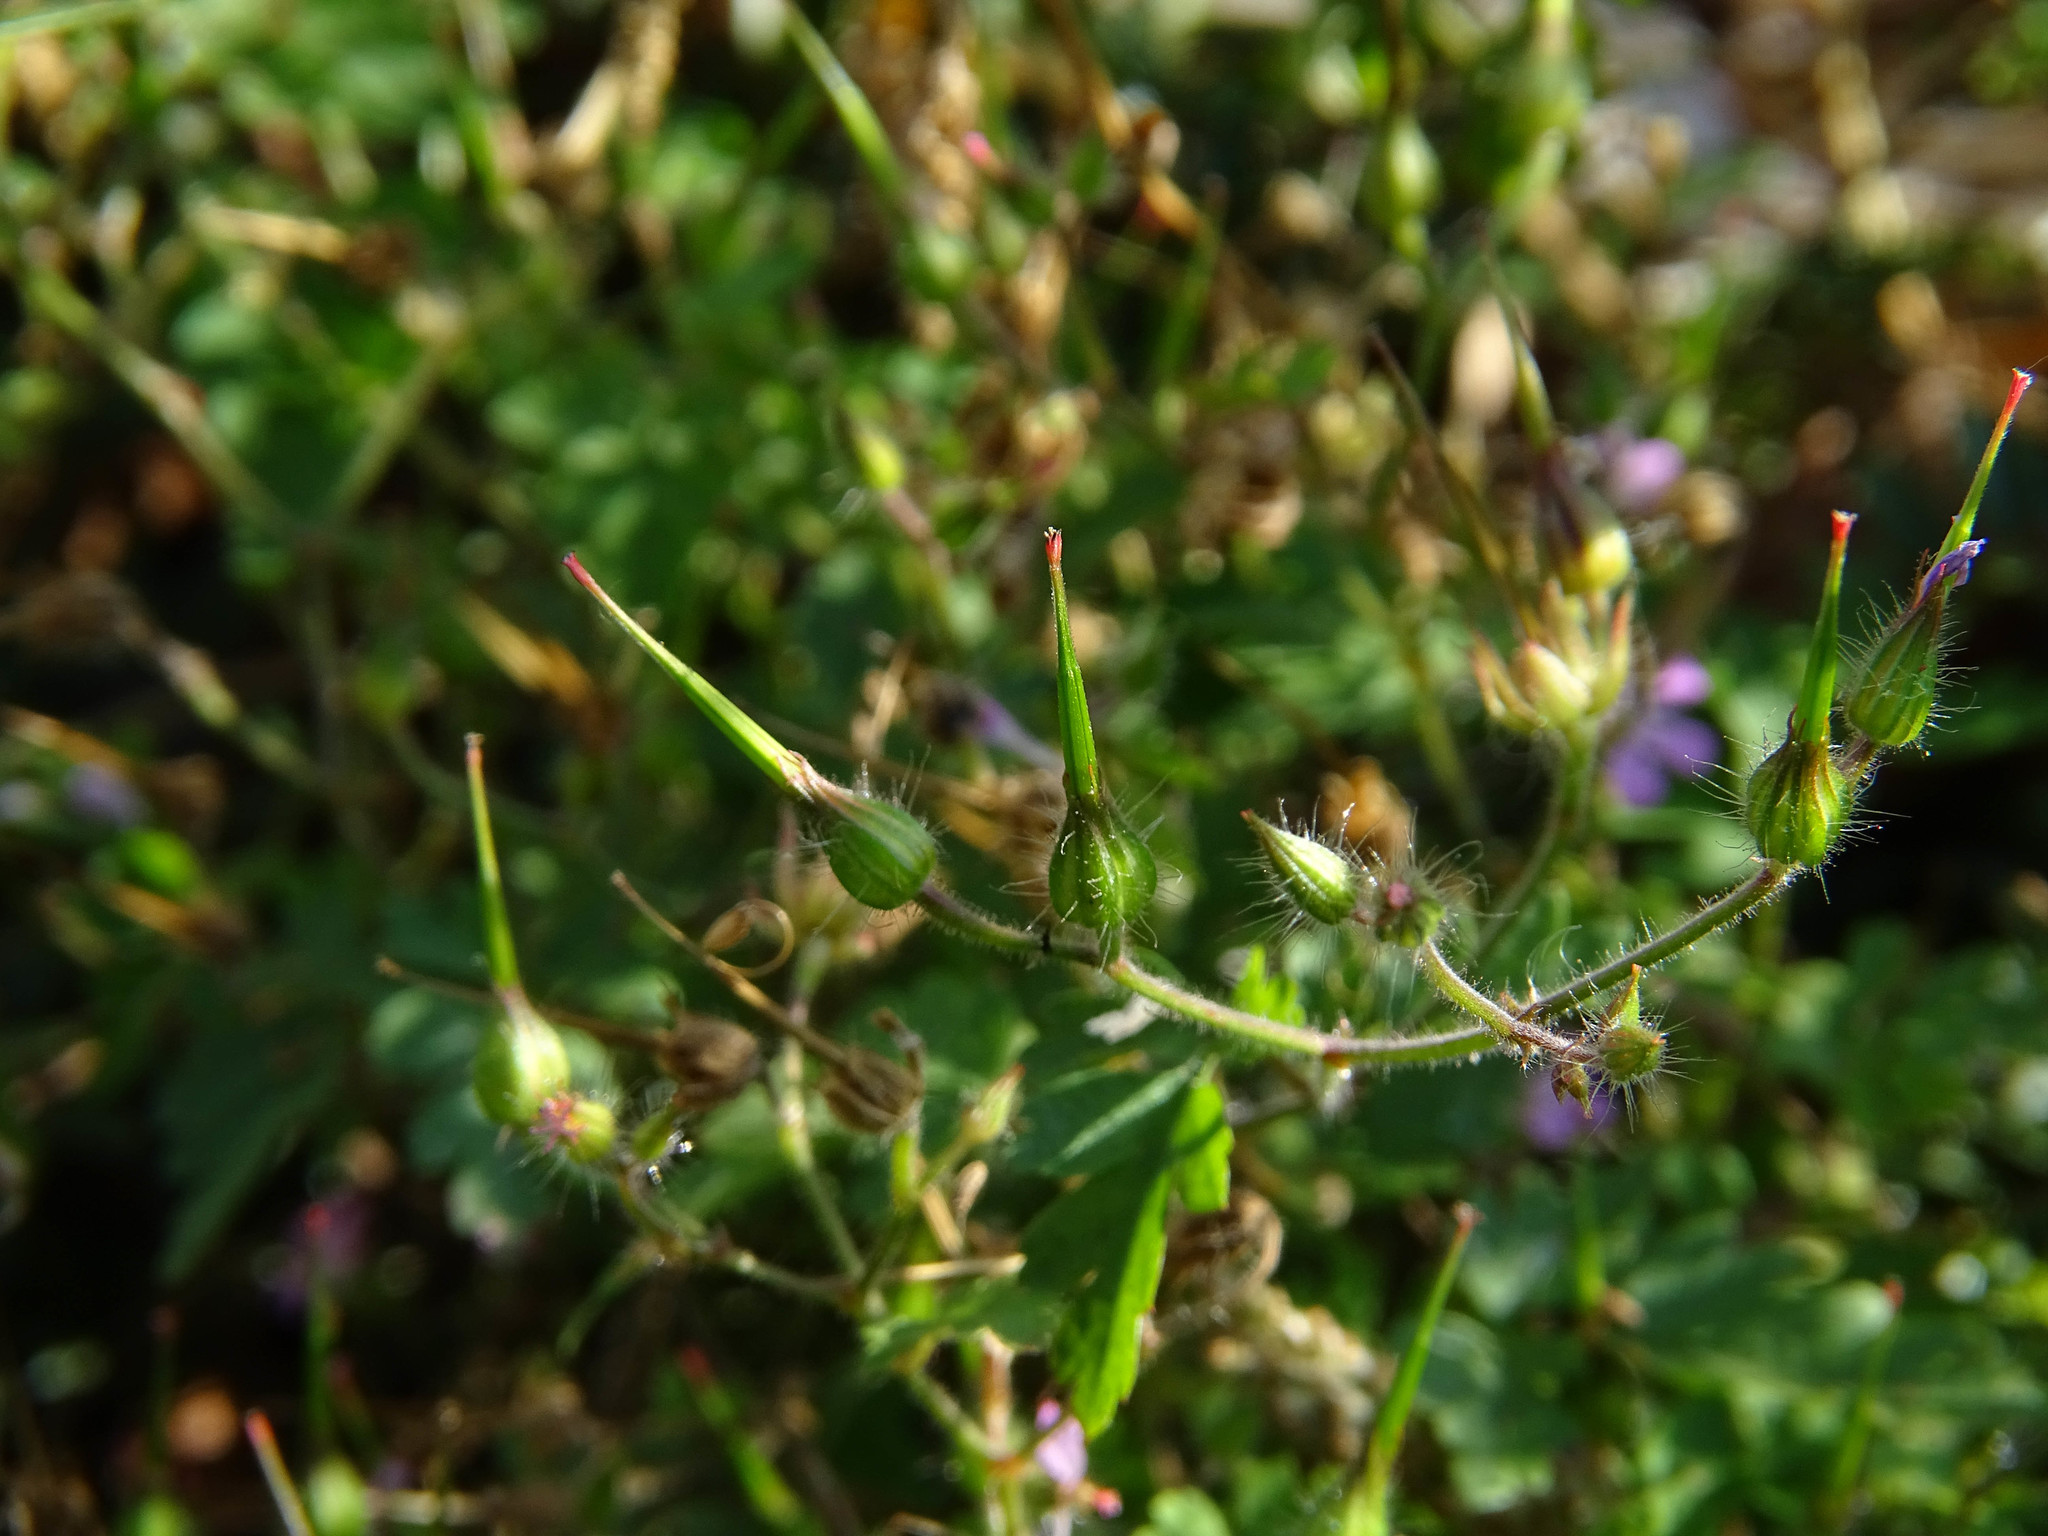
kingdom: Plantae
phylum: Tracheophyta
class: Magnoliopsida
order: Geraniales
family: Geraniaceae
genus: Geranium
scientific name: Geranium robertianum
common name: Herb-robert
